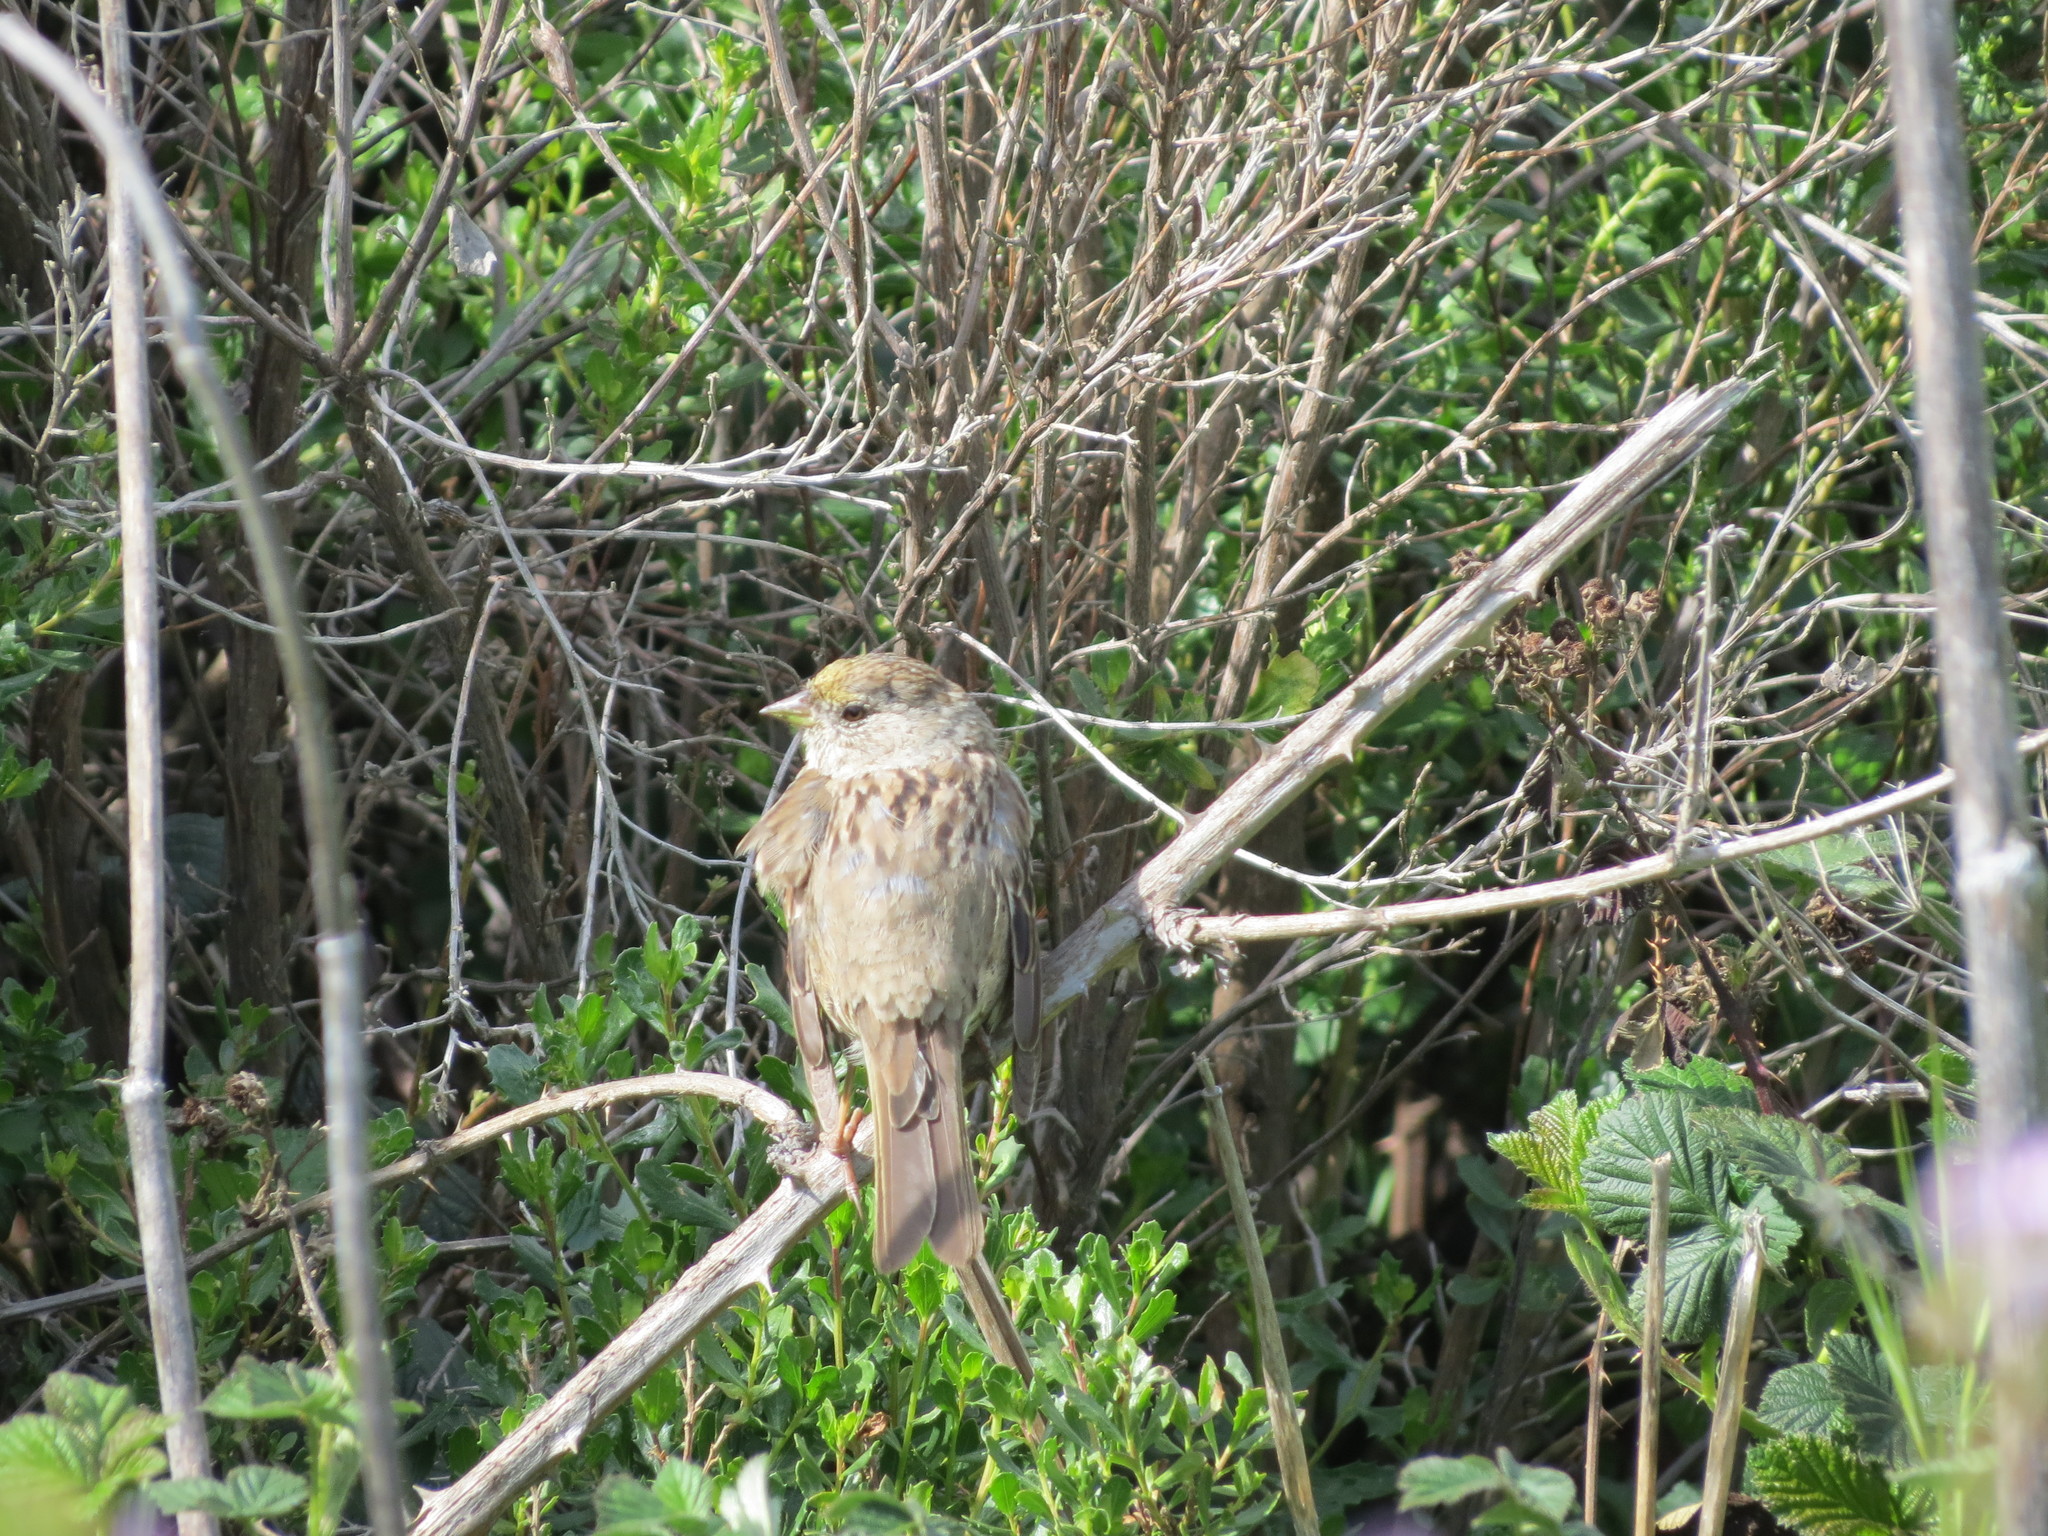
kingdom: Animalia
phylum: Chordata
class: Aves
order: Passeriformes
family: Passerellidae
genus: Zonotrichia
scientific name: Zonotrichia atricapilla
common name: Golden-crowned sparrow
